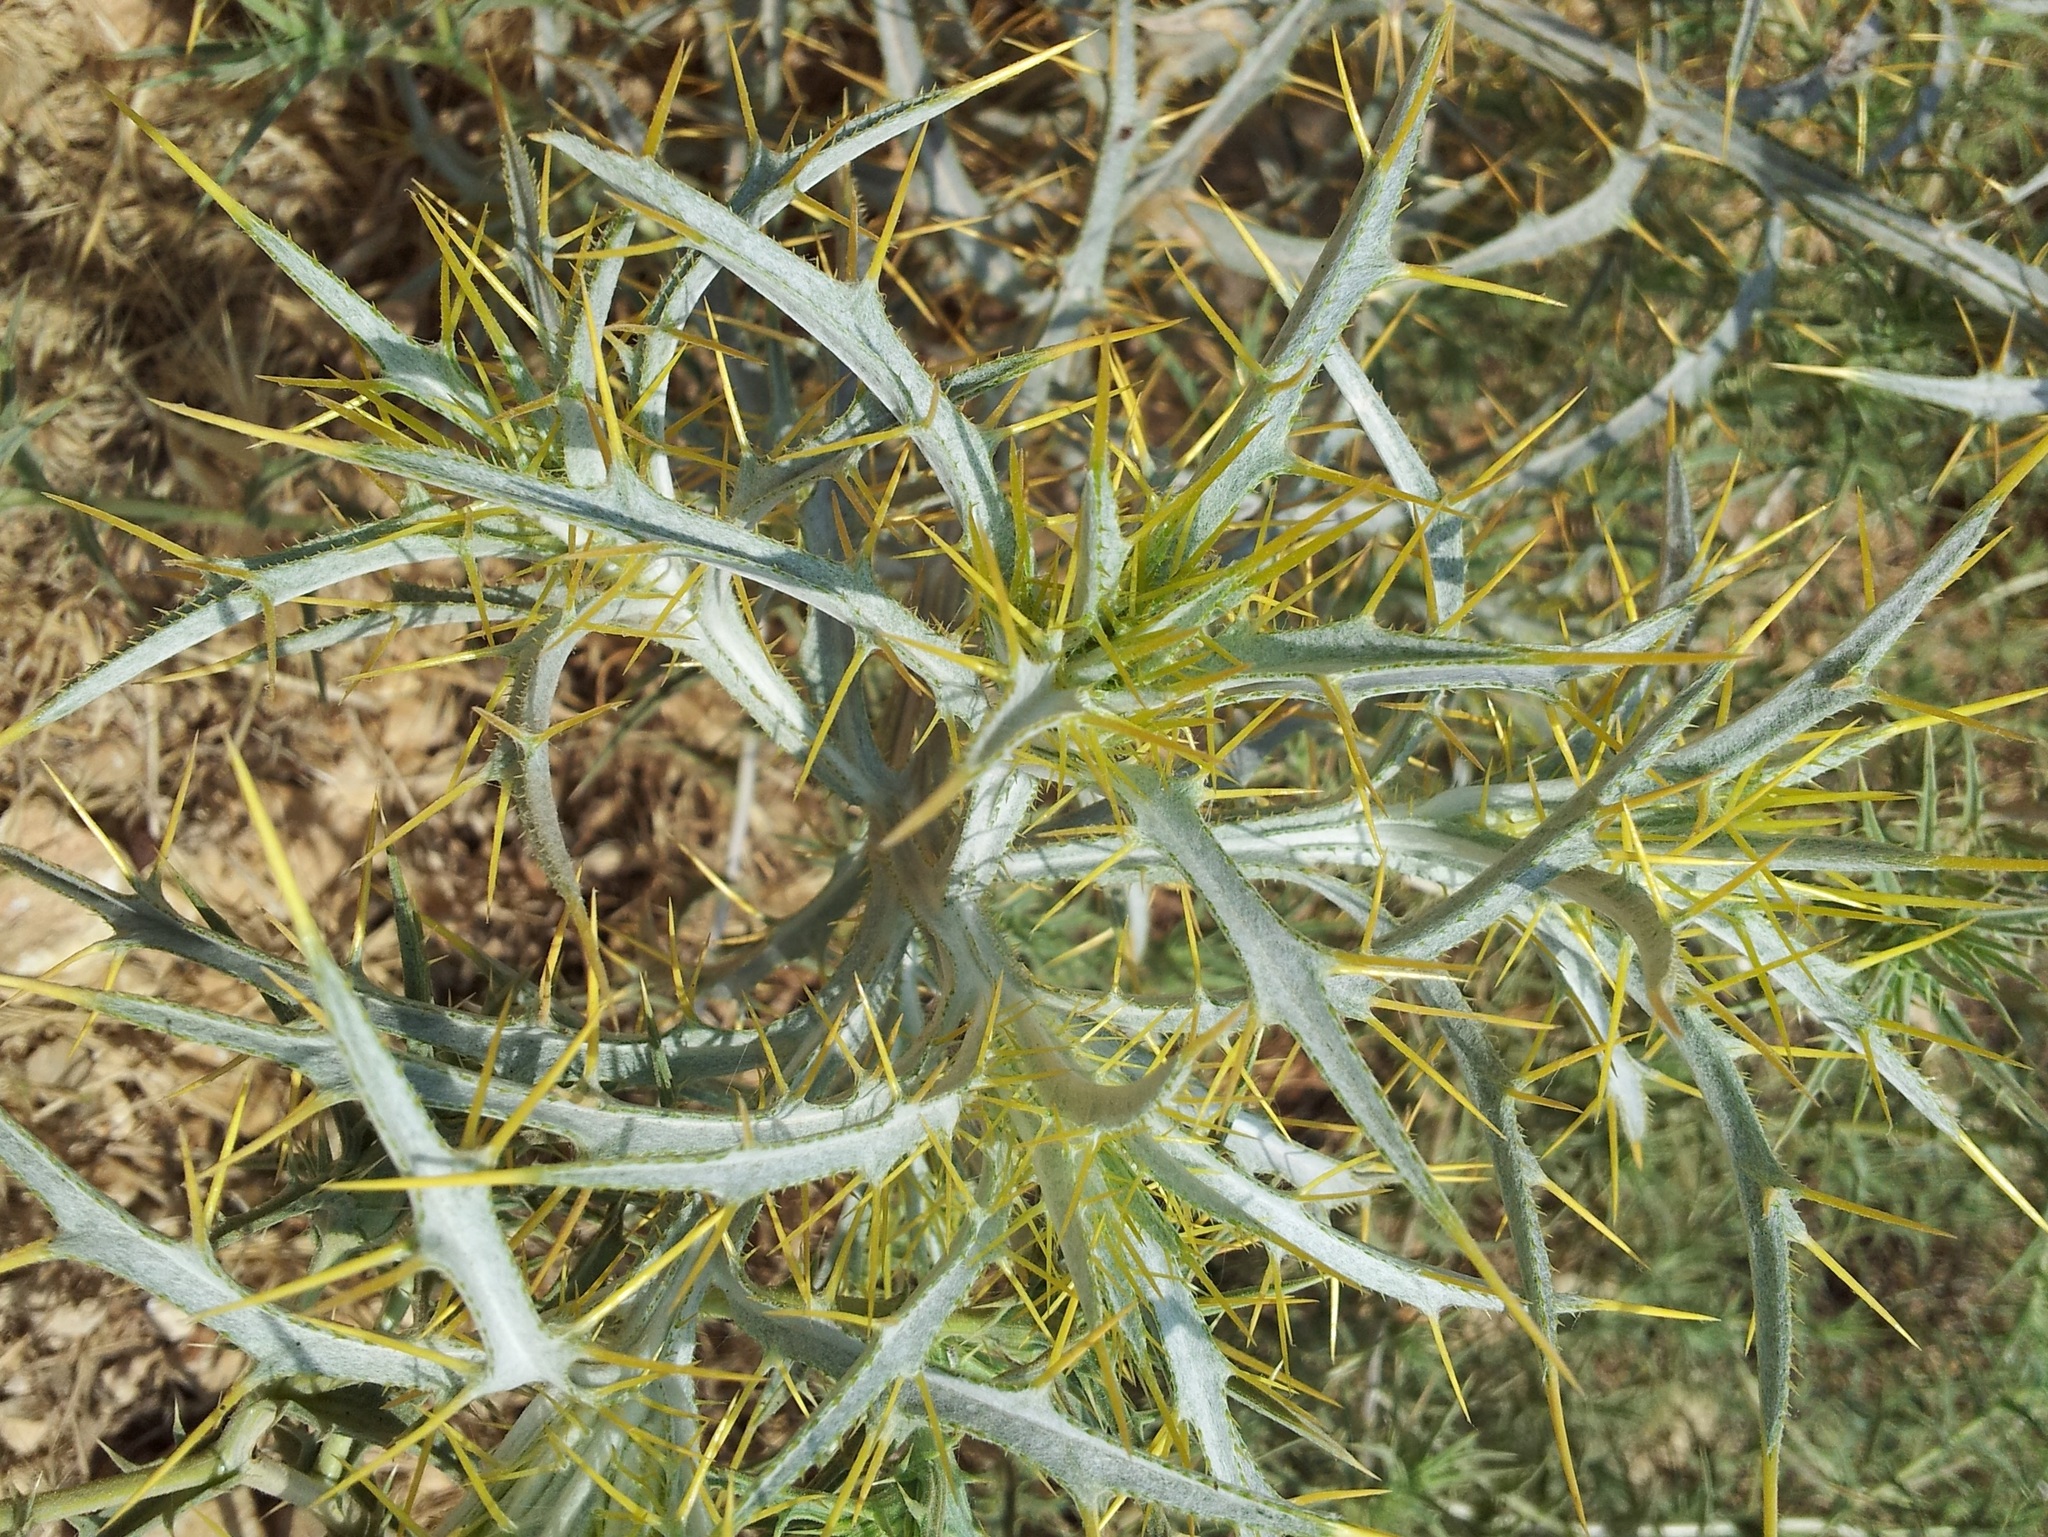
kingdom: Plantae
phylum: Tracheophyta
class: Magnoliopsida
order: Asterales
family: Asteraceae
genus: Picnomon
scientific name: Picnomon acarna
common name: Soldier thistle
